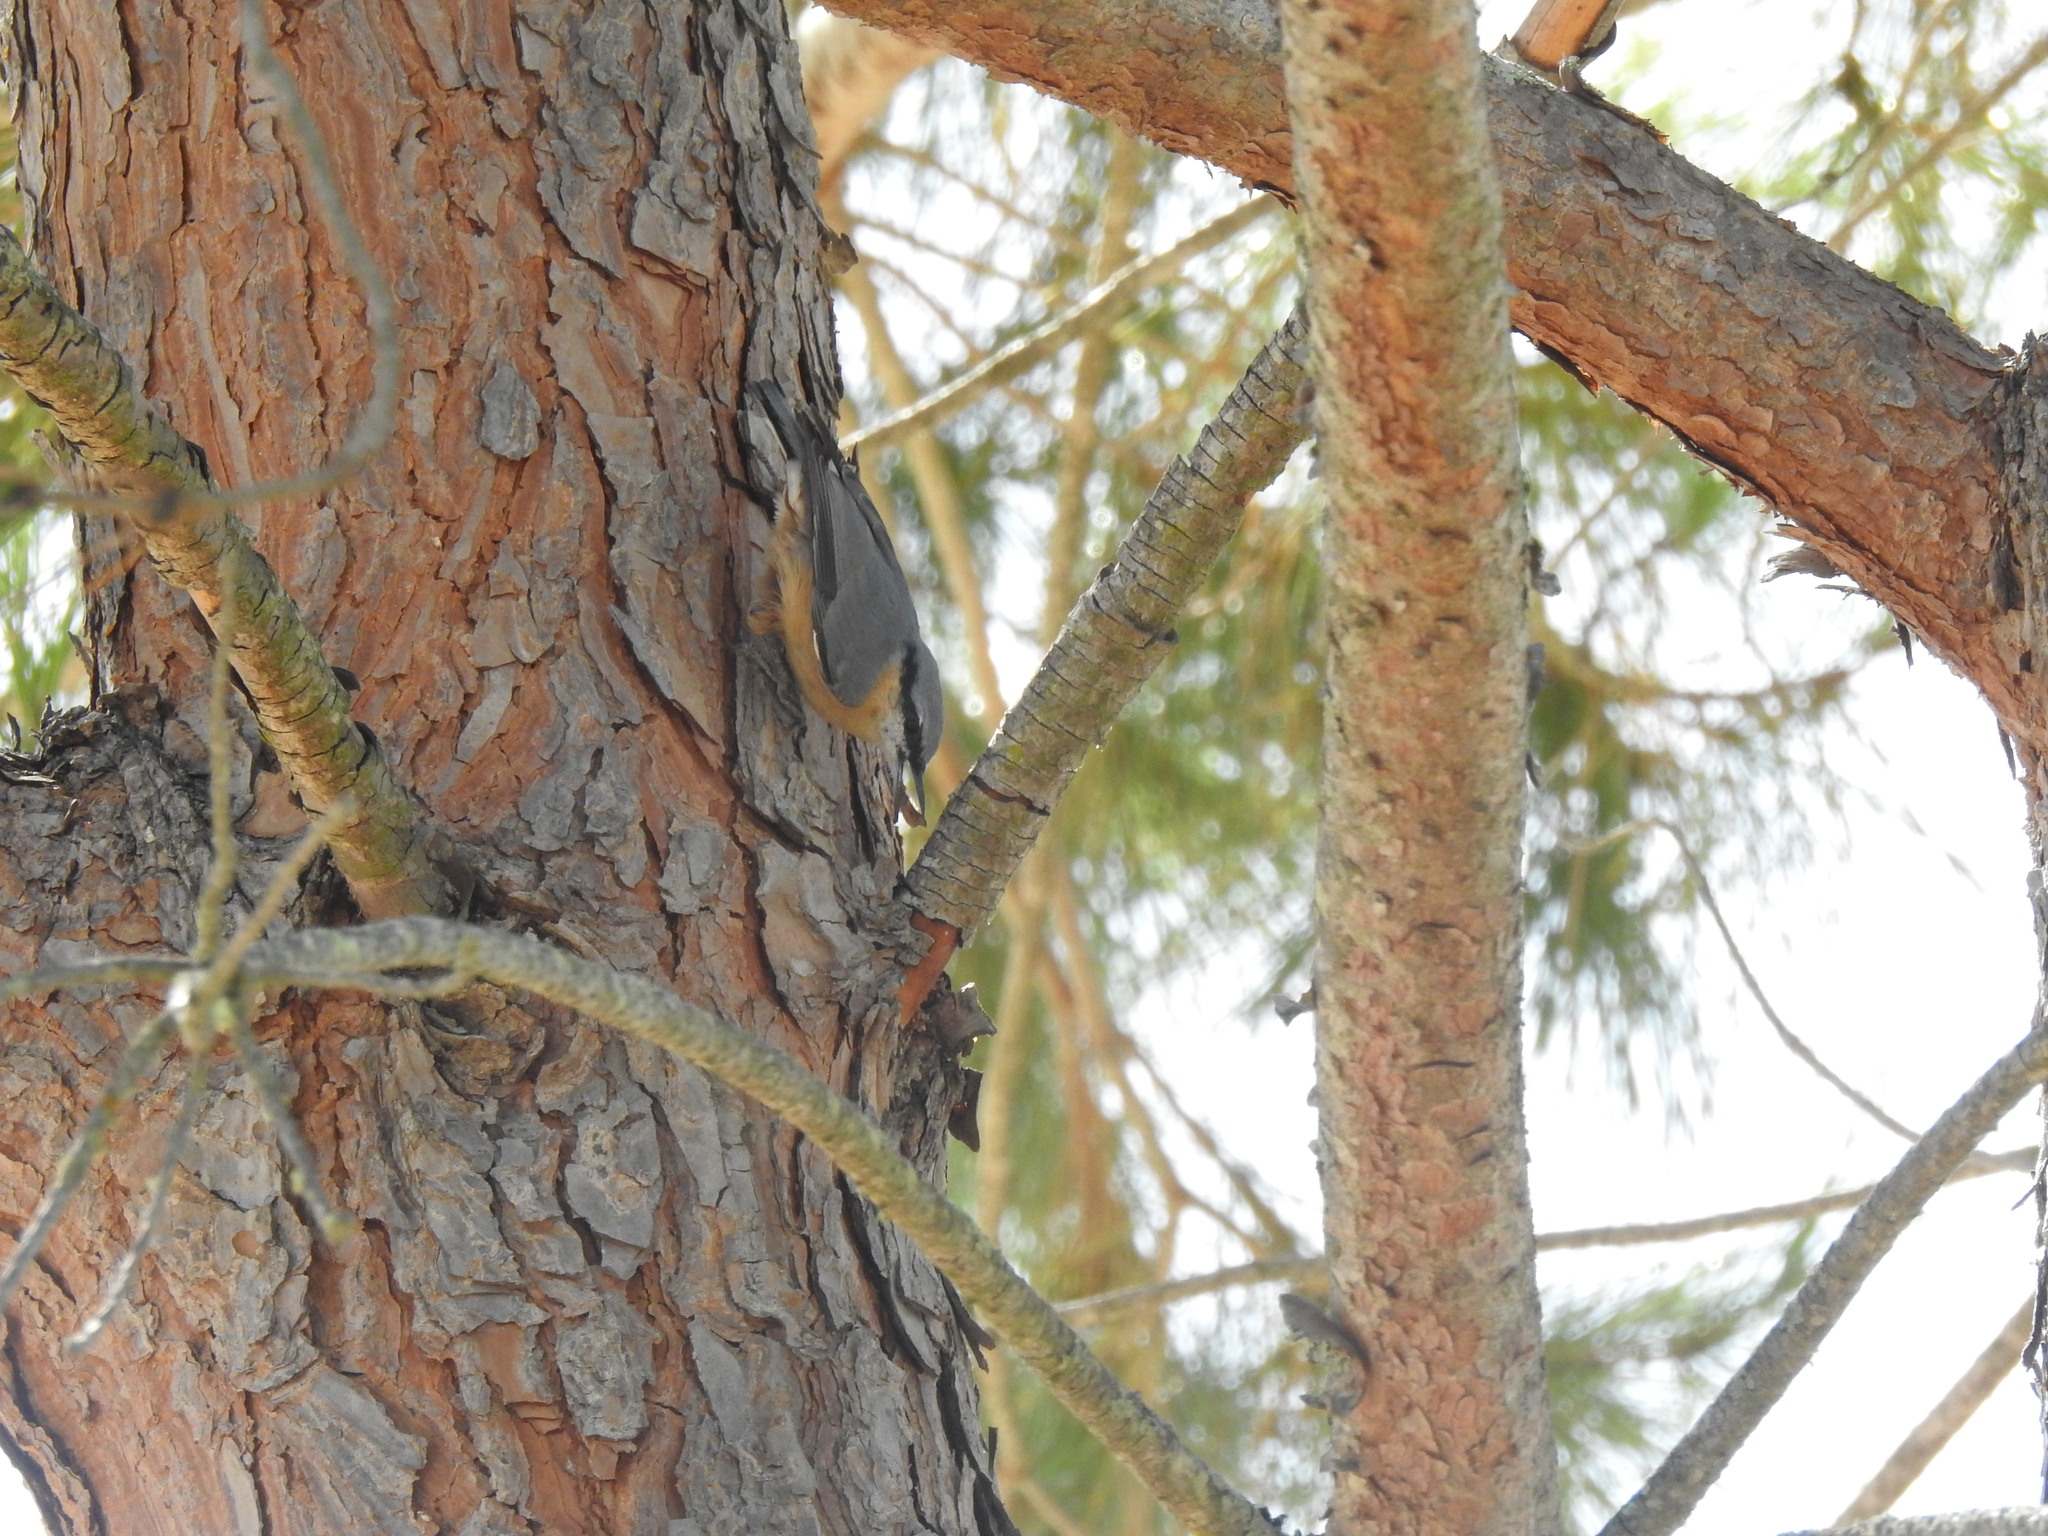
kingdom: Animalia
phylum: Chordata
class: Aves
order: Passeriformes
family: Sittidae
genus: Sitta
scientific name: Sitta europaea
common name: Eurasian nuthatch
